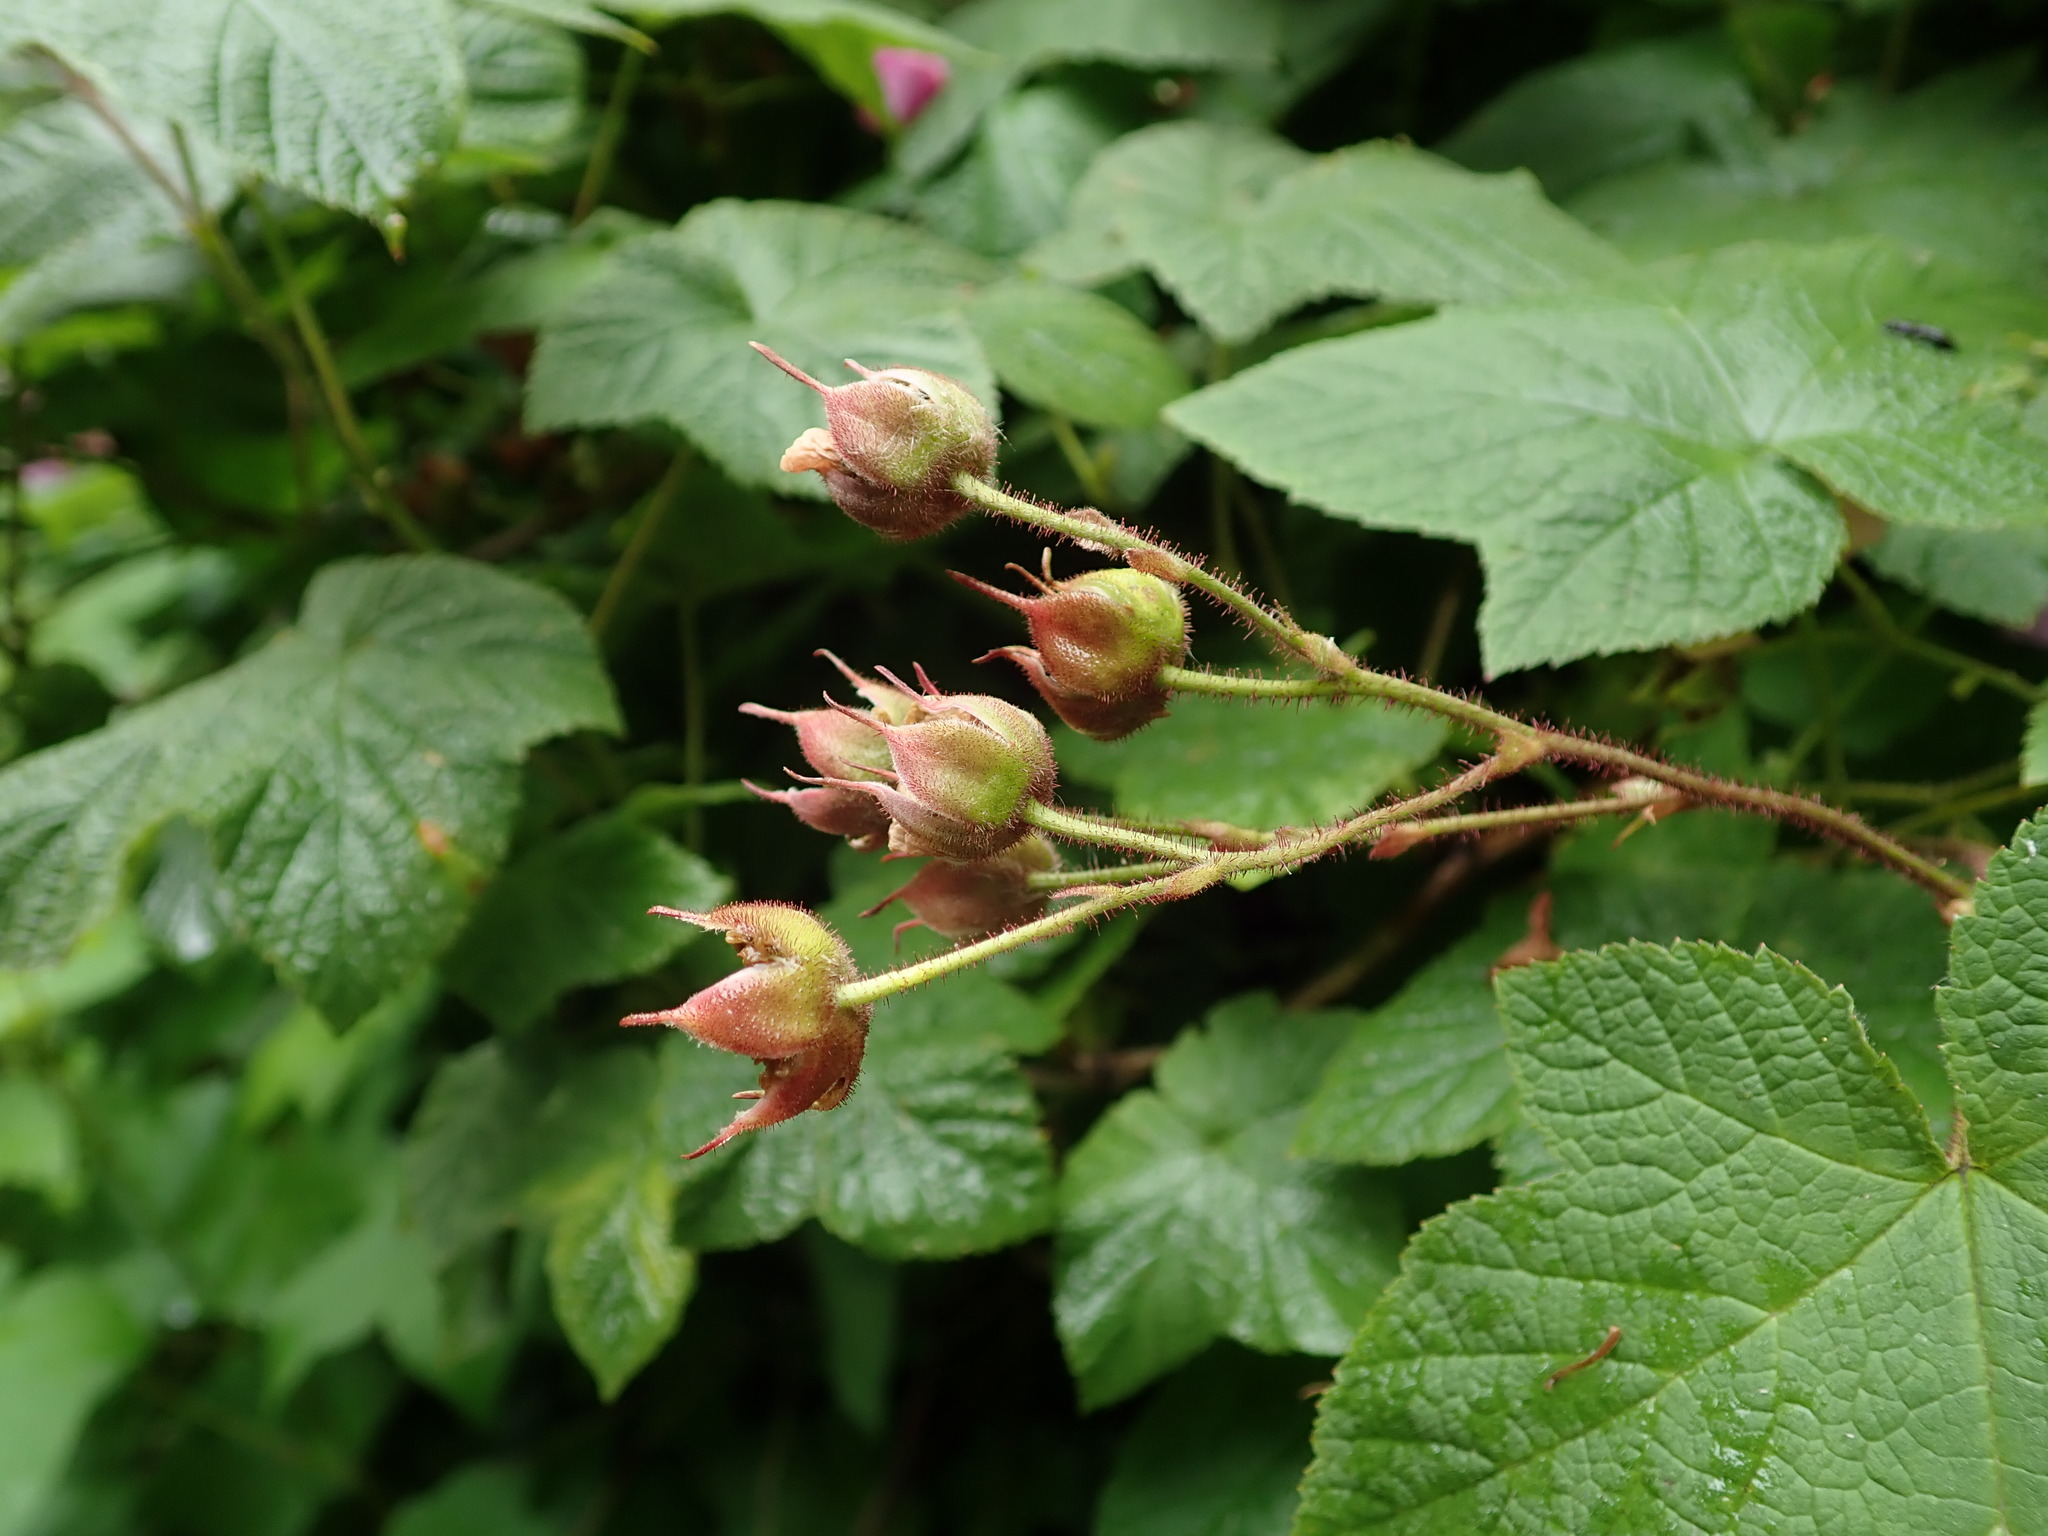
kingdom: Plantae
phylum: Tracheophyta
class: Magnoliopsida
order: Rosales
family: Rosaceae
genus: Rubus
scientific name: Rubus odoratus
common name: Purple-flowered raspberry
